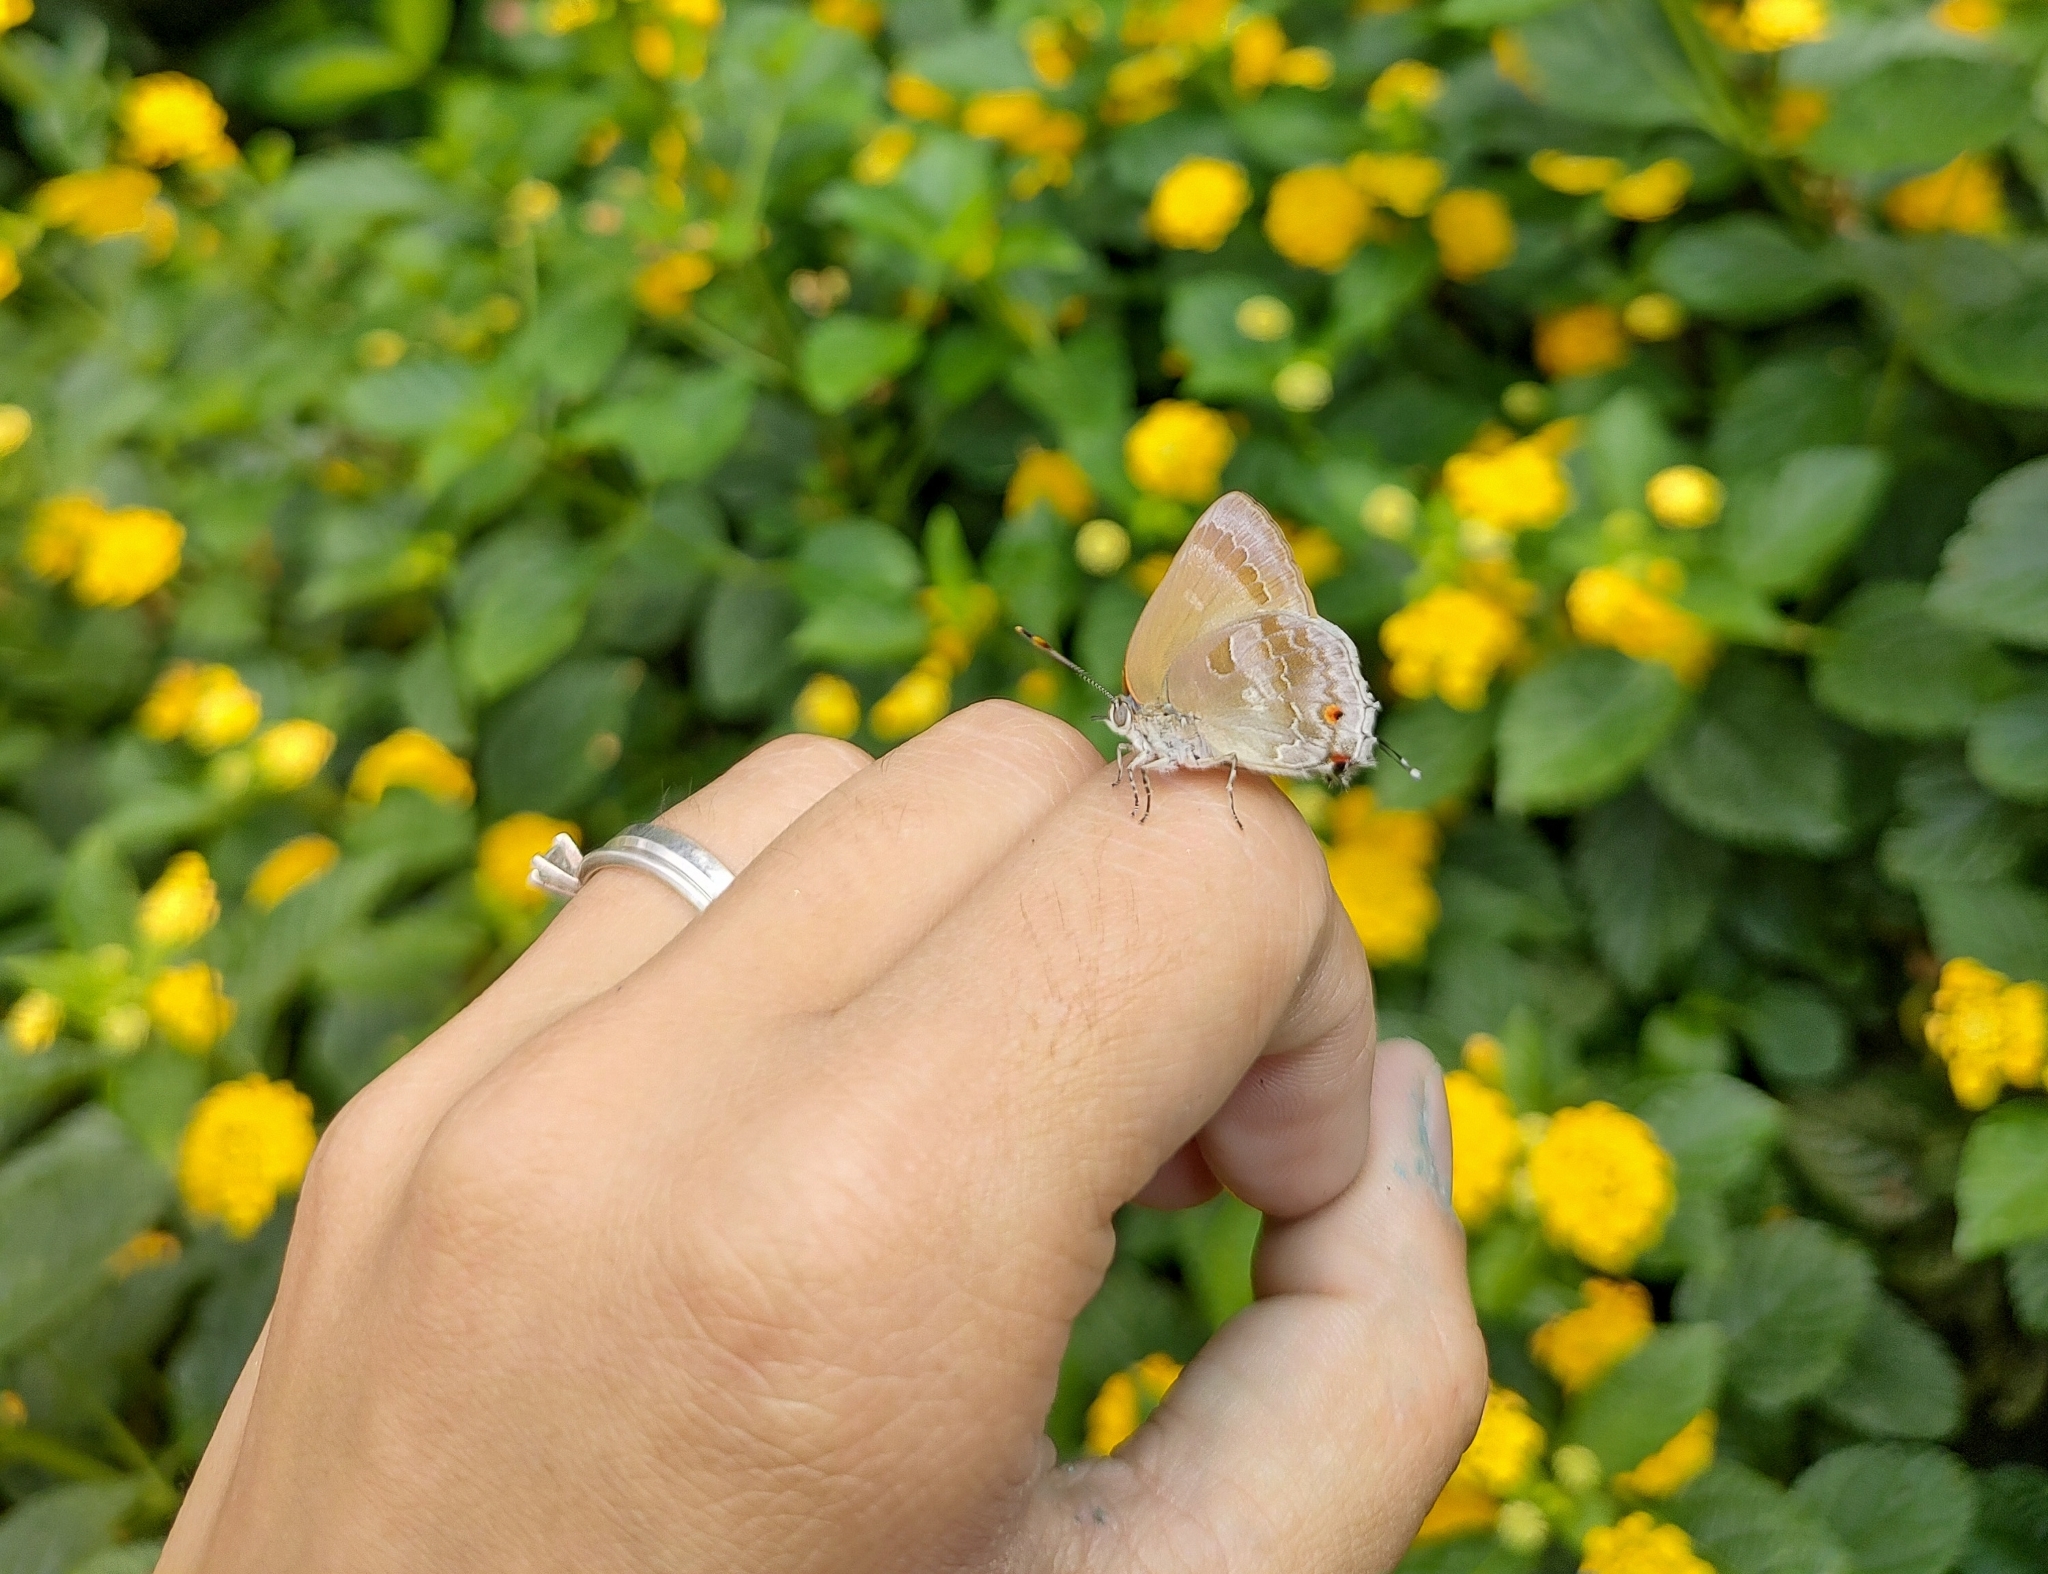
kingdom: Animalia
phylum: Arthropoda
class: Insecta
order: Lepidoptera
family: Lycaenidae
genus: Michaelus
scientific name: Michaelus thordesa
